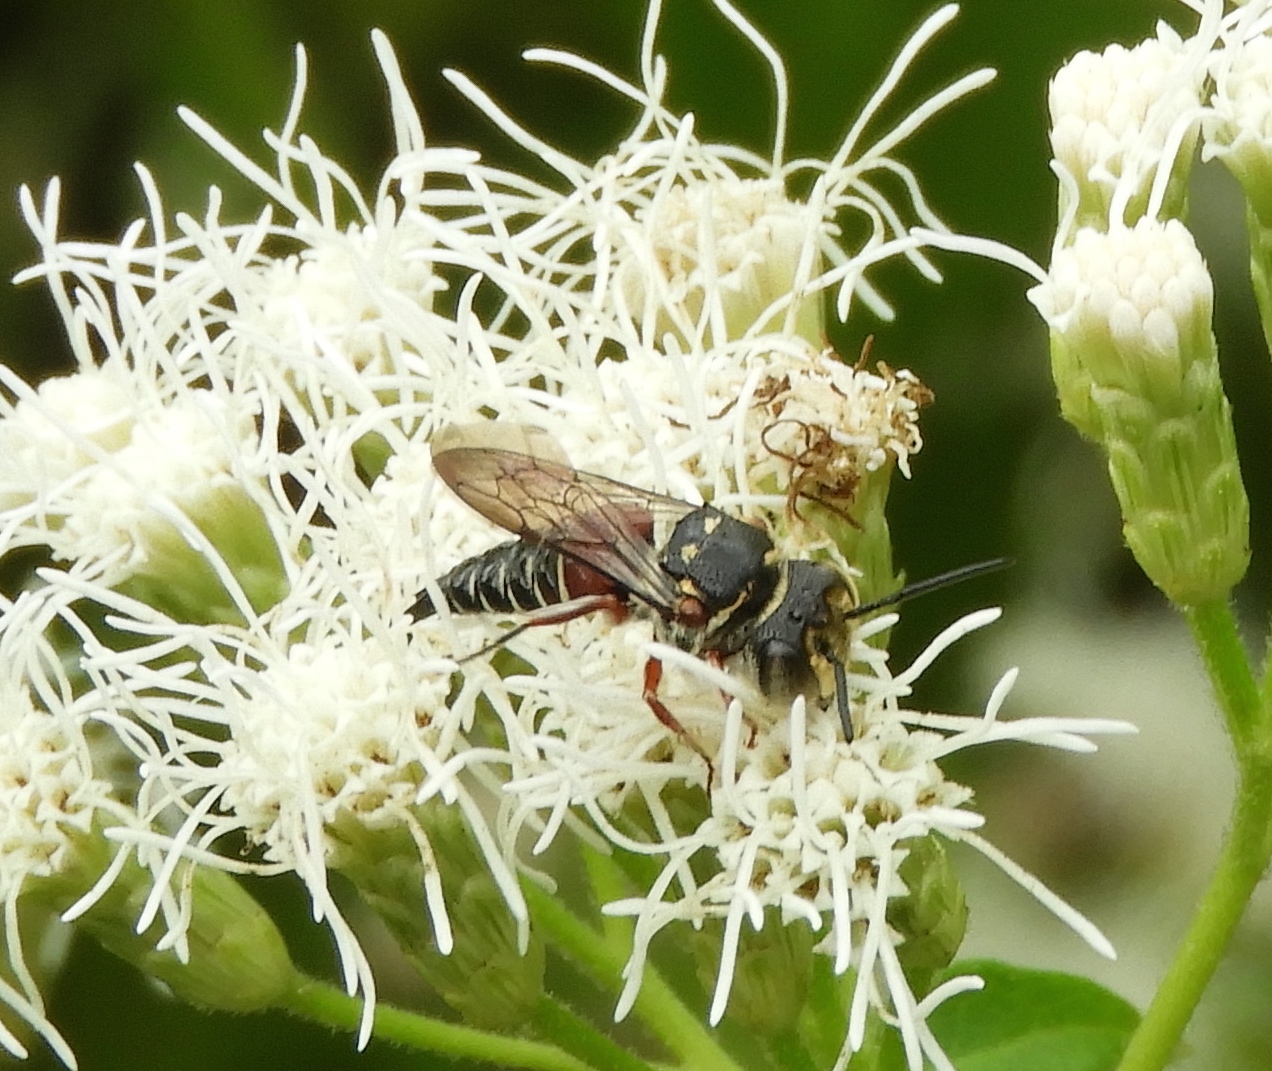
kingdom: Animalia
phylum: Arthropoda
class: Insecta
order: Hymenoptera
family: Megachilidae
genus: Coelioxys
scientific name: Coelioxys
